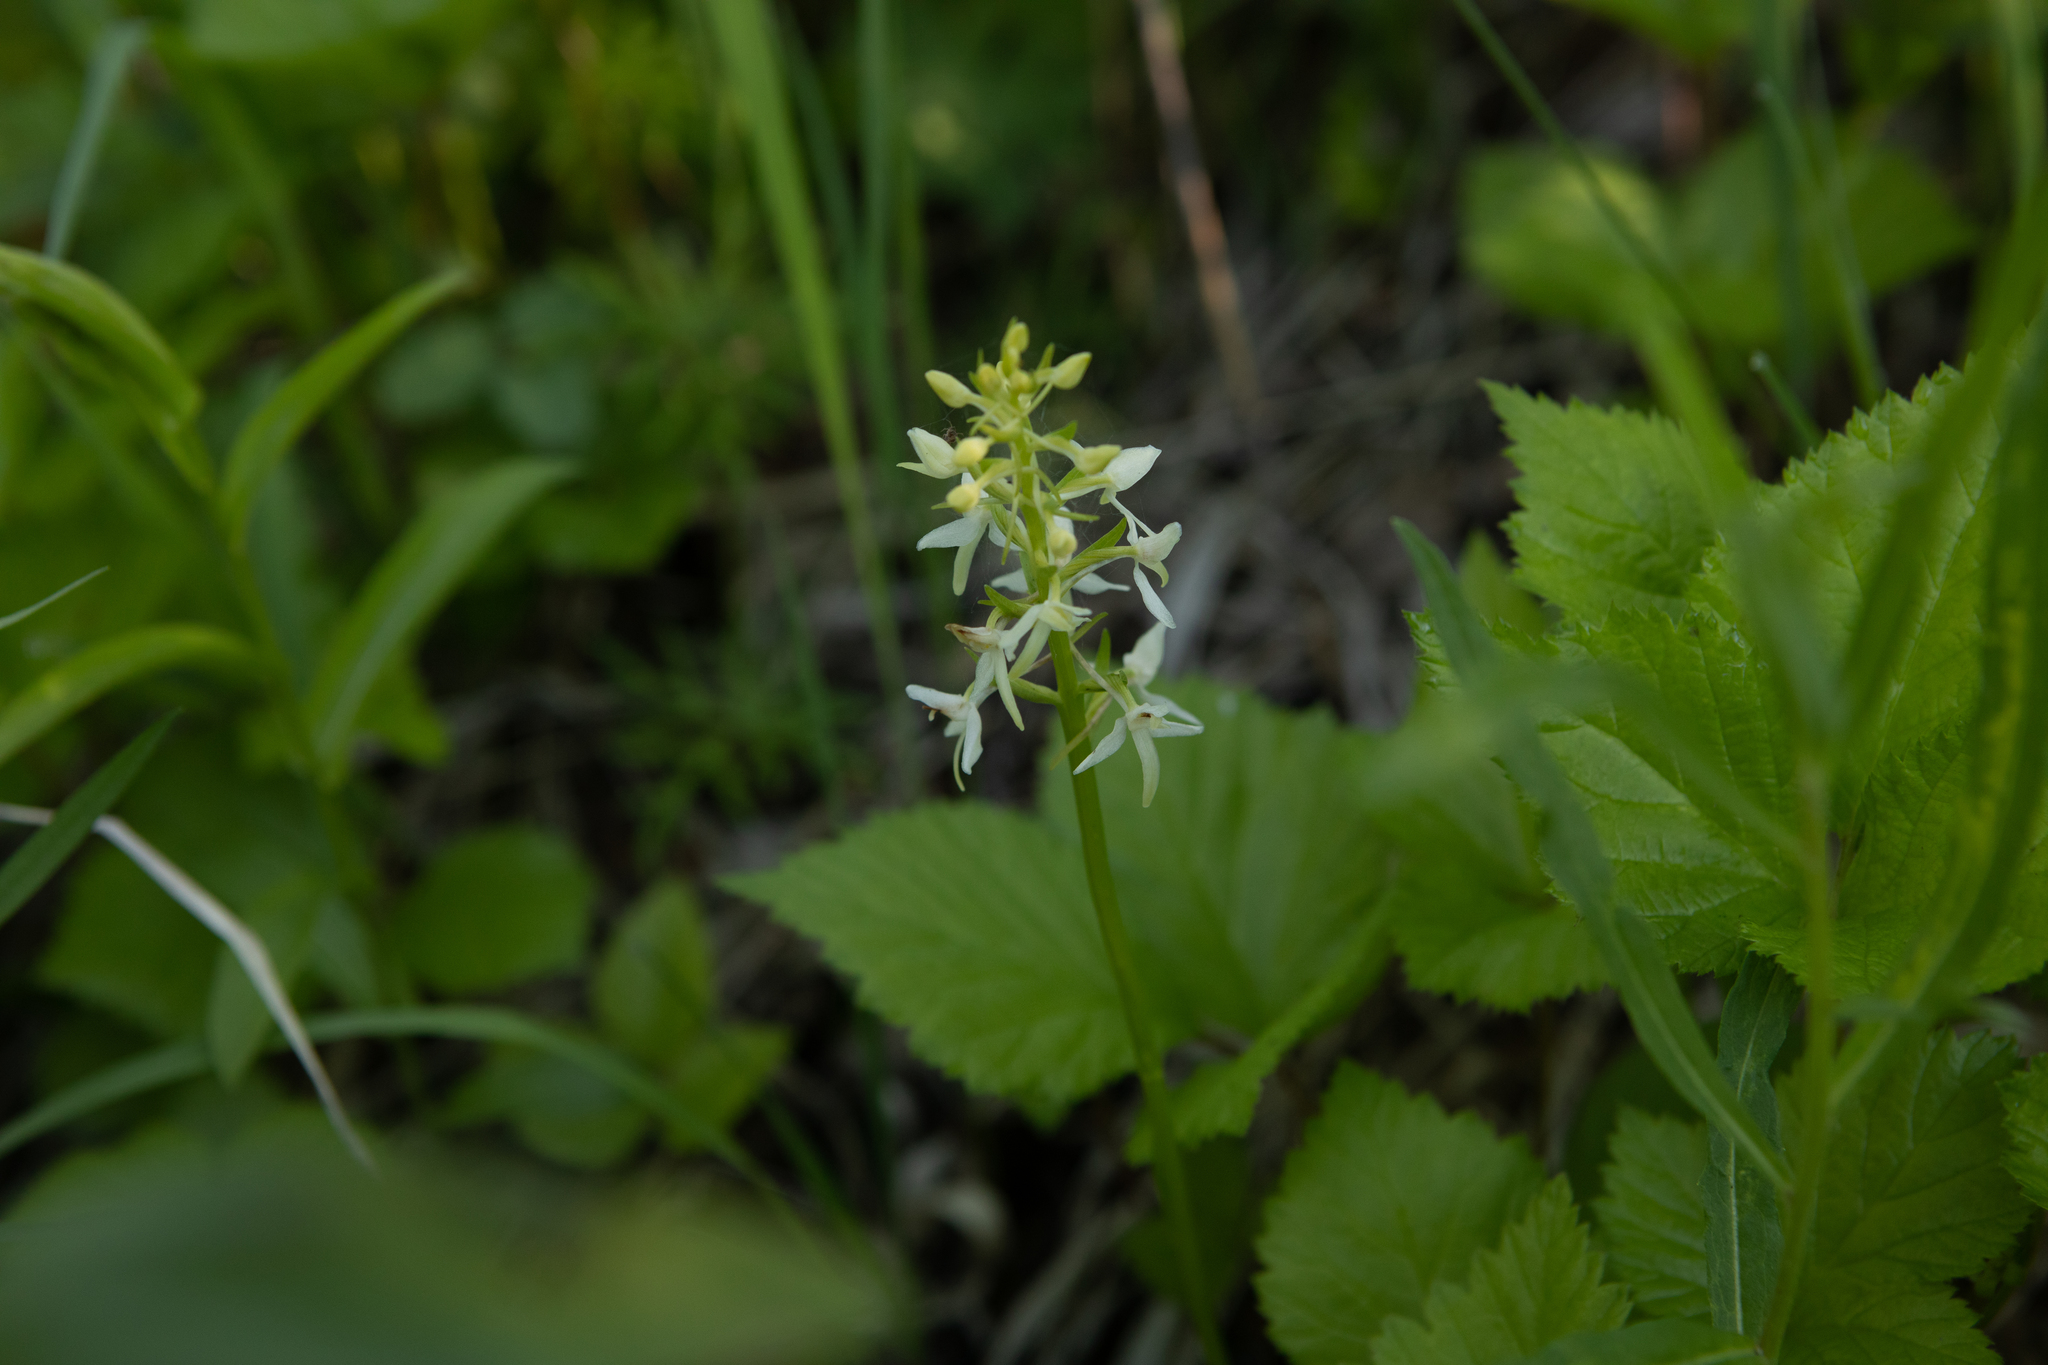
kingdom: Plantae
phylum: Tracheophyta
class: Liliopsida
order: Asparagales
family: Orchidaceae
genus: Platanthera
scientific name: Platanthera bifolia
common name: Lesser butterfly-orchid
